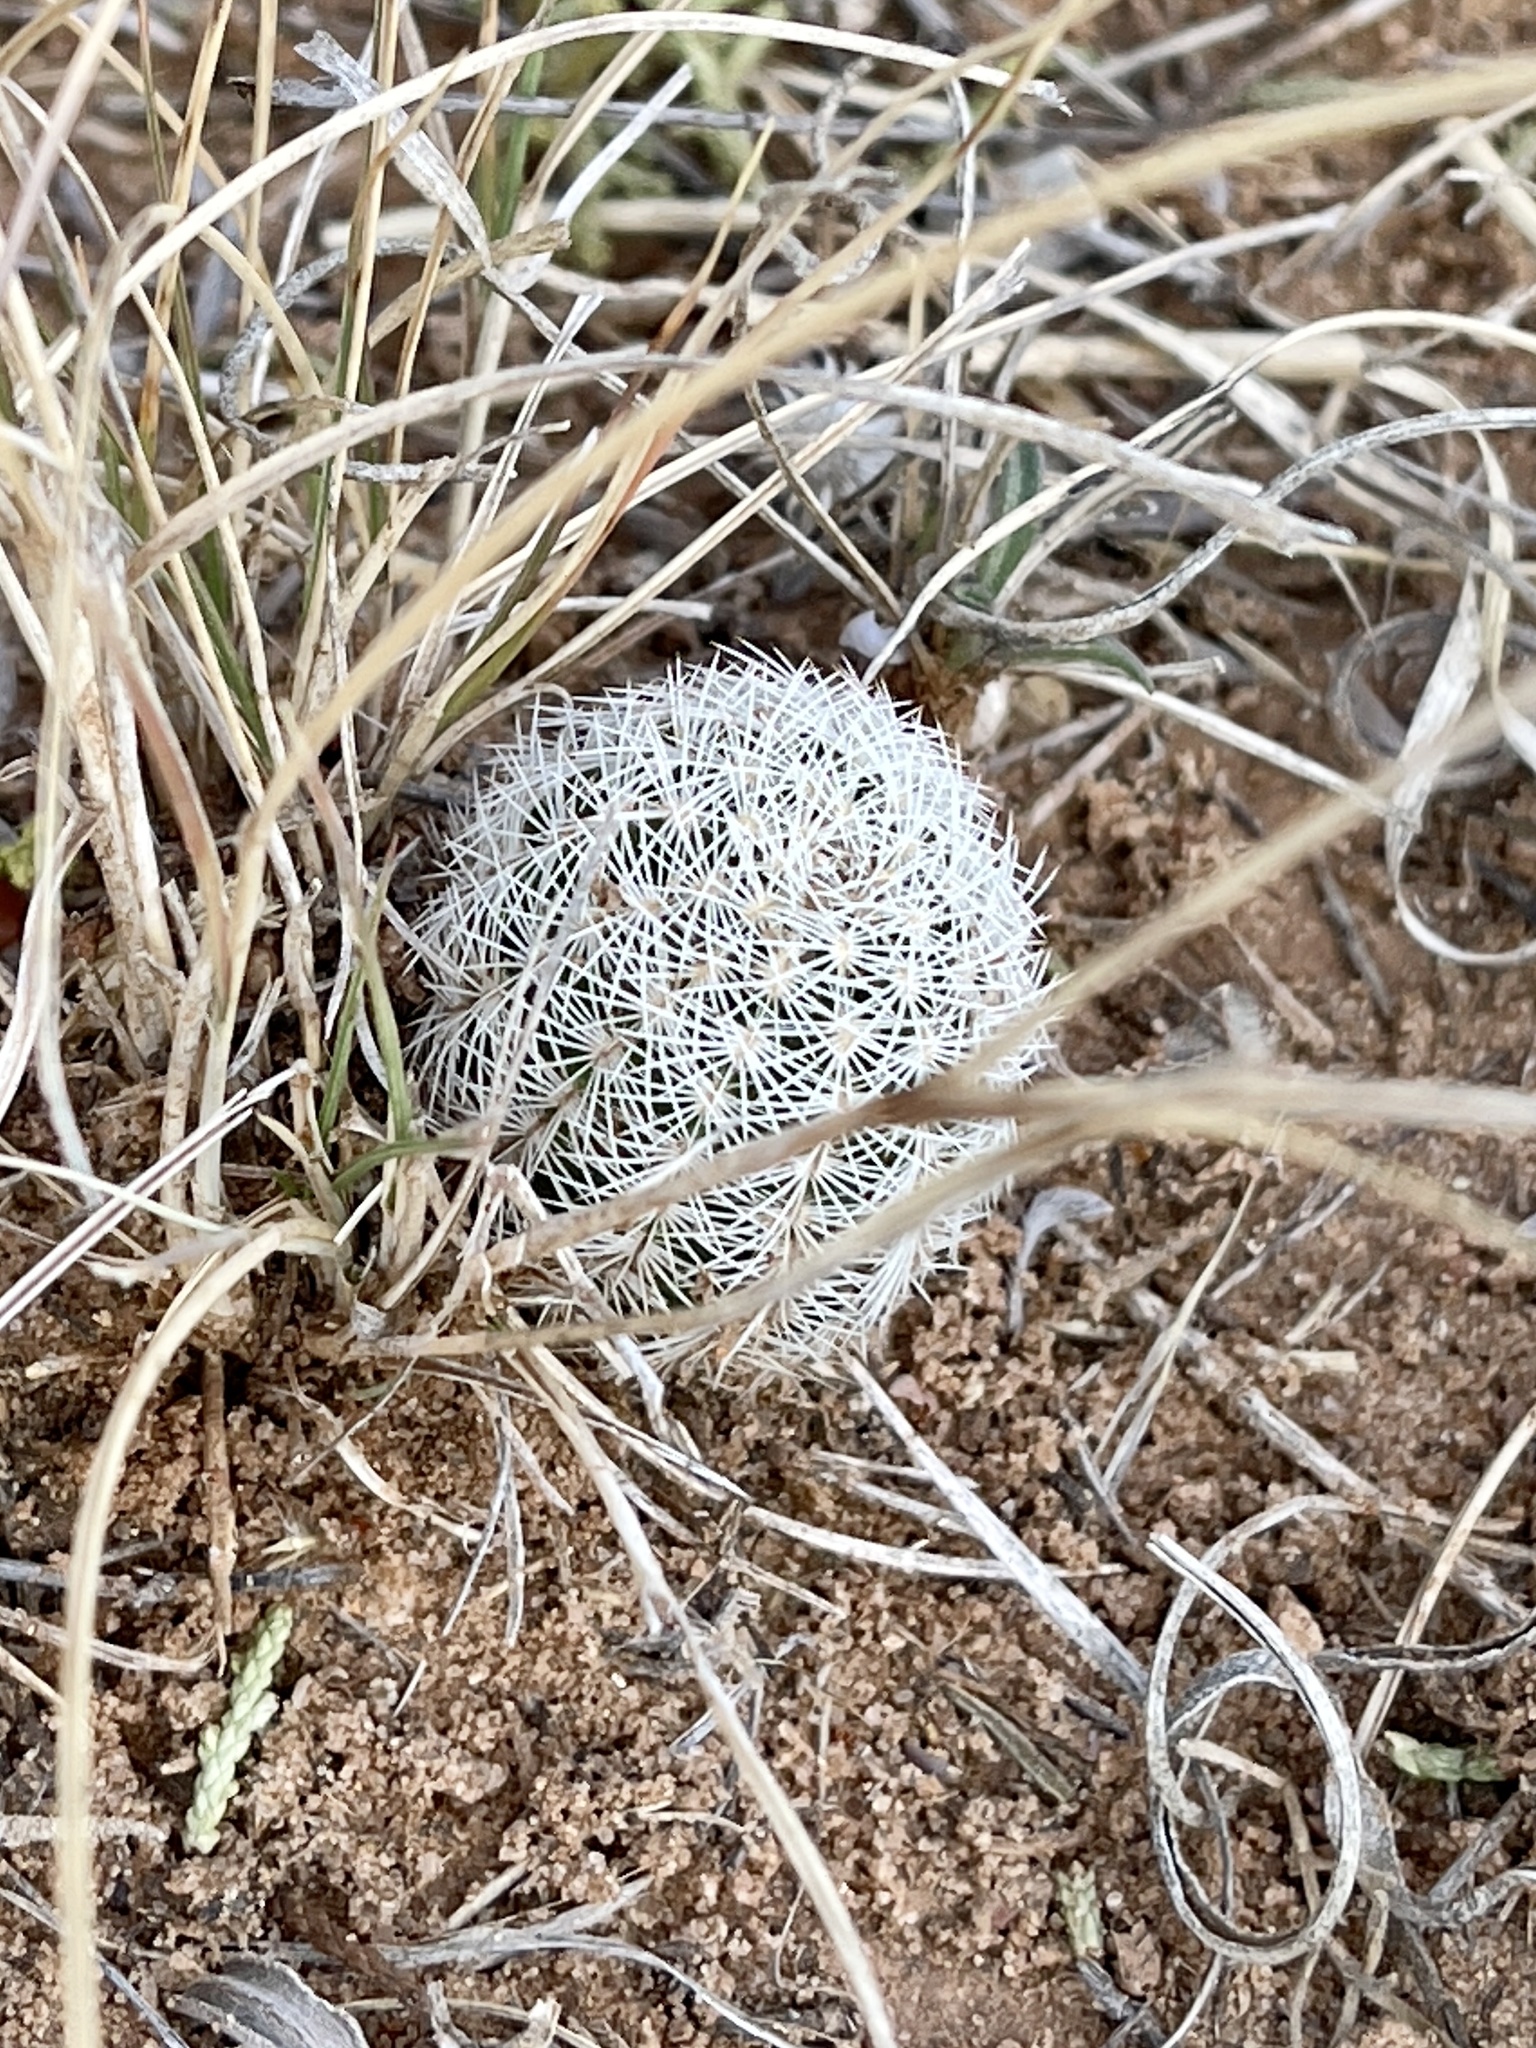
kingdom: Plantae
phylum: Tracheophyta
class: Magnoliopsida
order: Caryophyllales
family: Cactaceae
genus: Echinocereus
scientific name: Echinocereus reichenbachii
